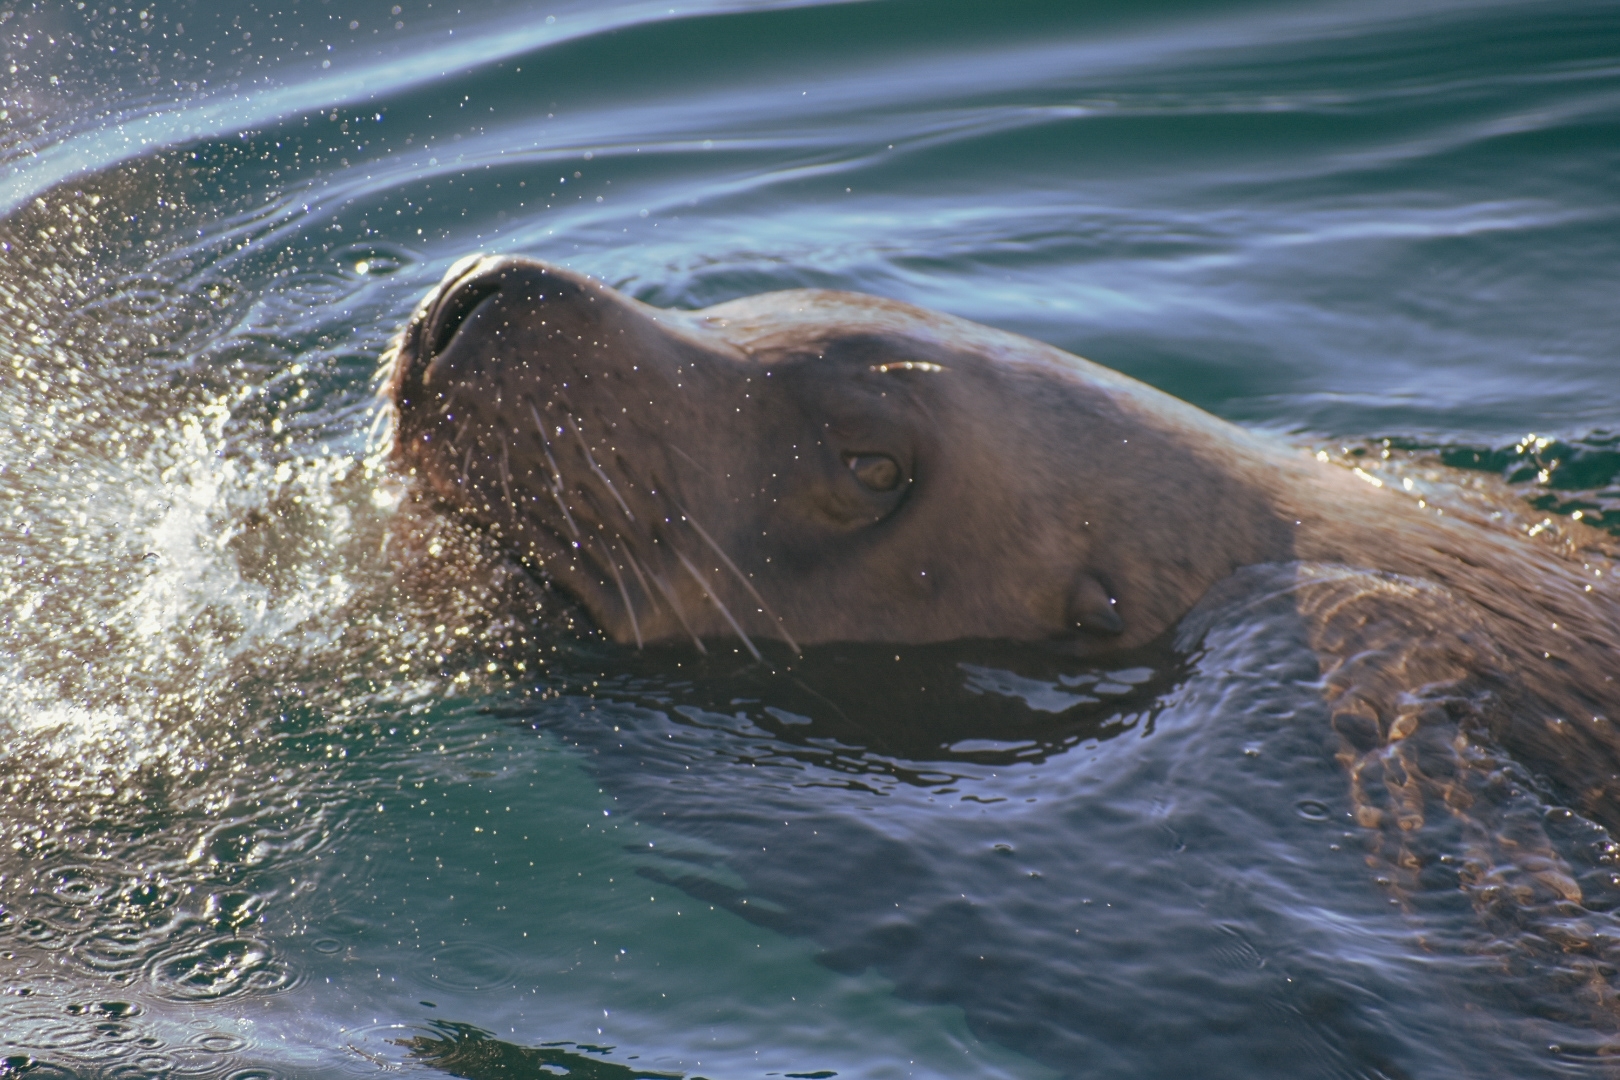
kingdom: Animalia
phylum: Chordata
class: Mammalia
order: Carnivora
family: Otariidae
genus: Eumetopias
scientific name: Eumetopias jubatus
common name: Steller sea lion
